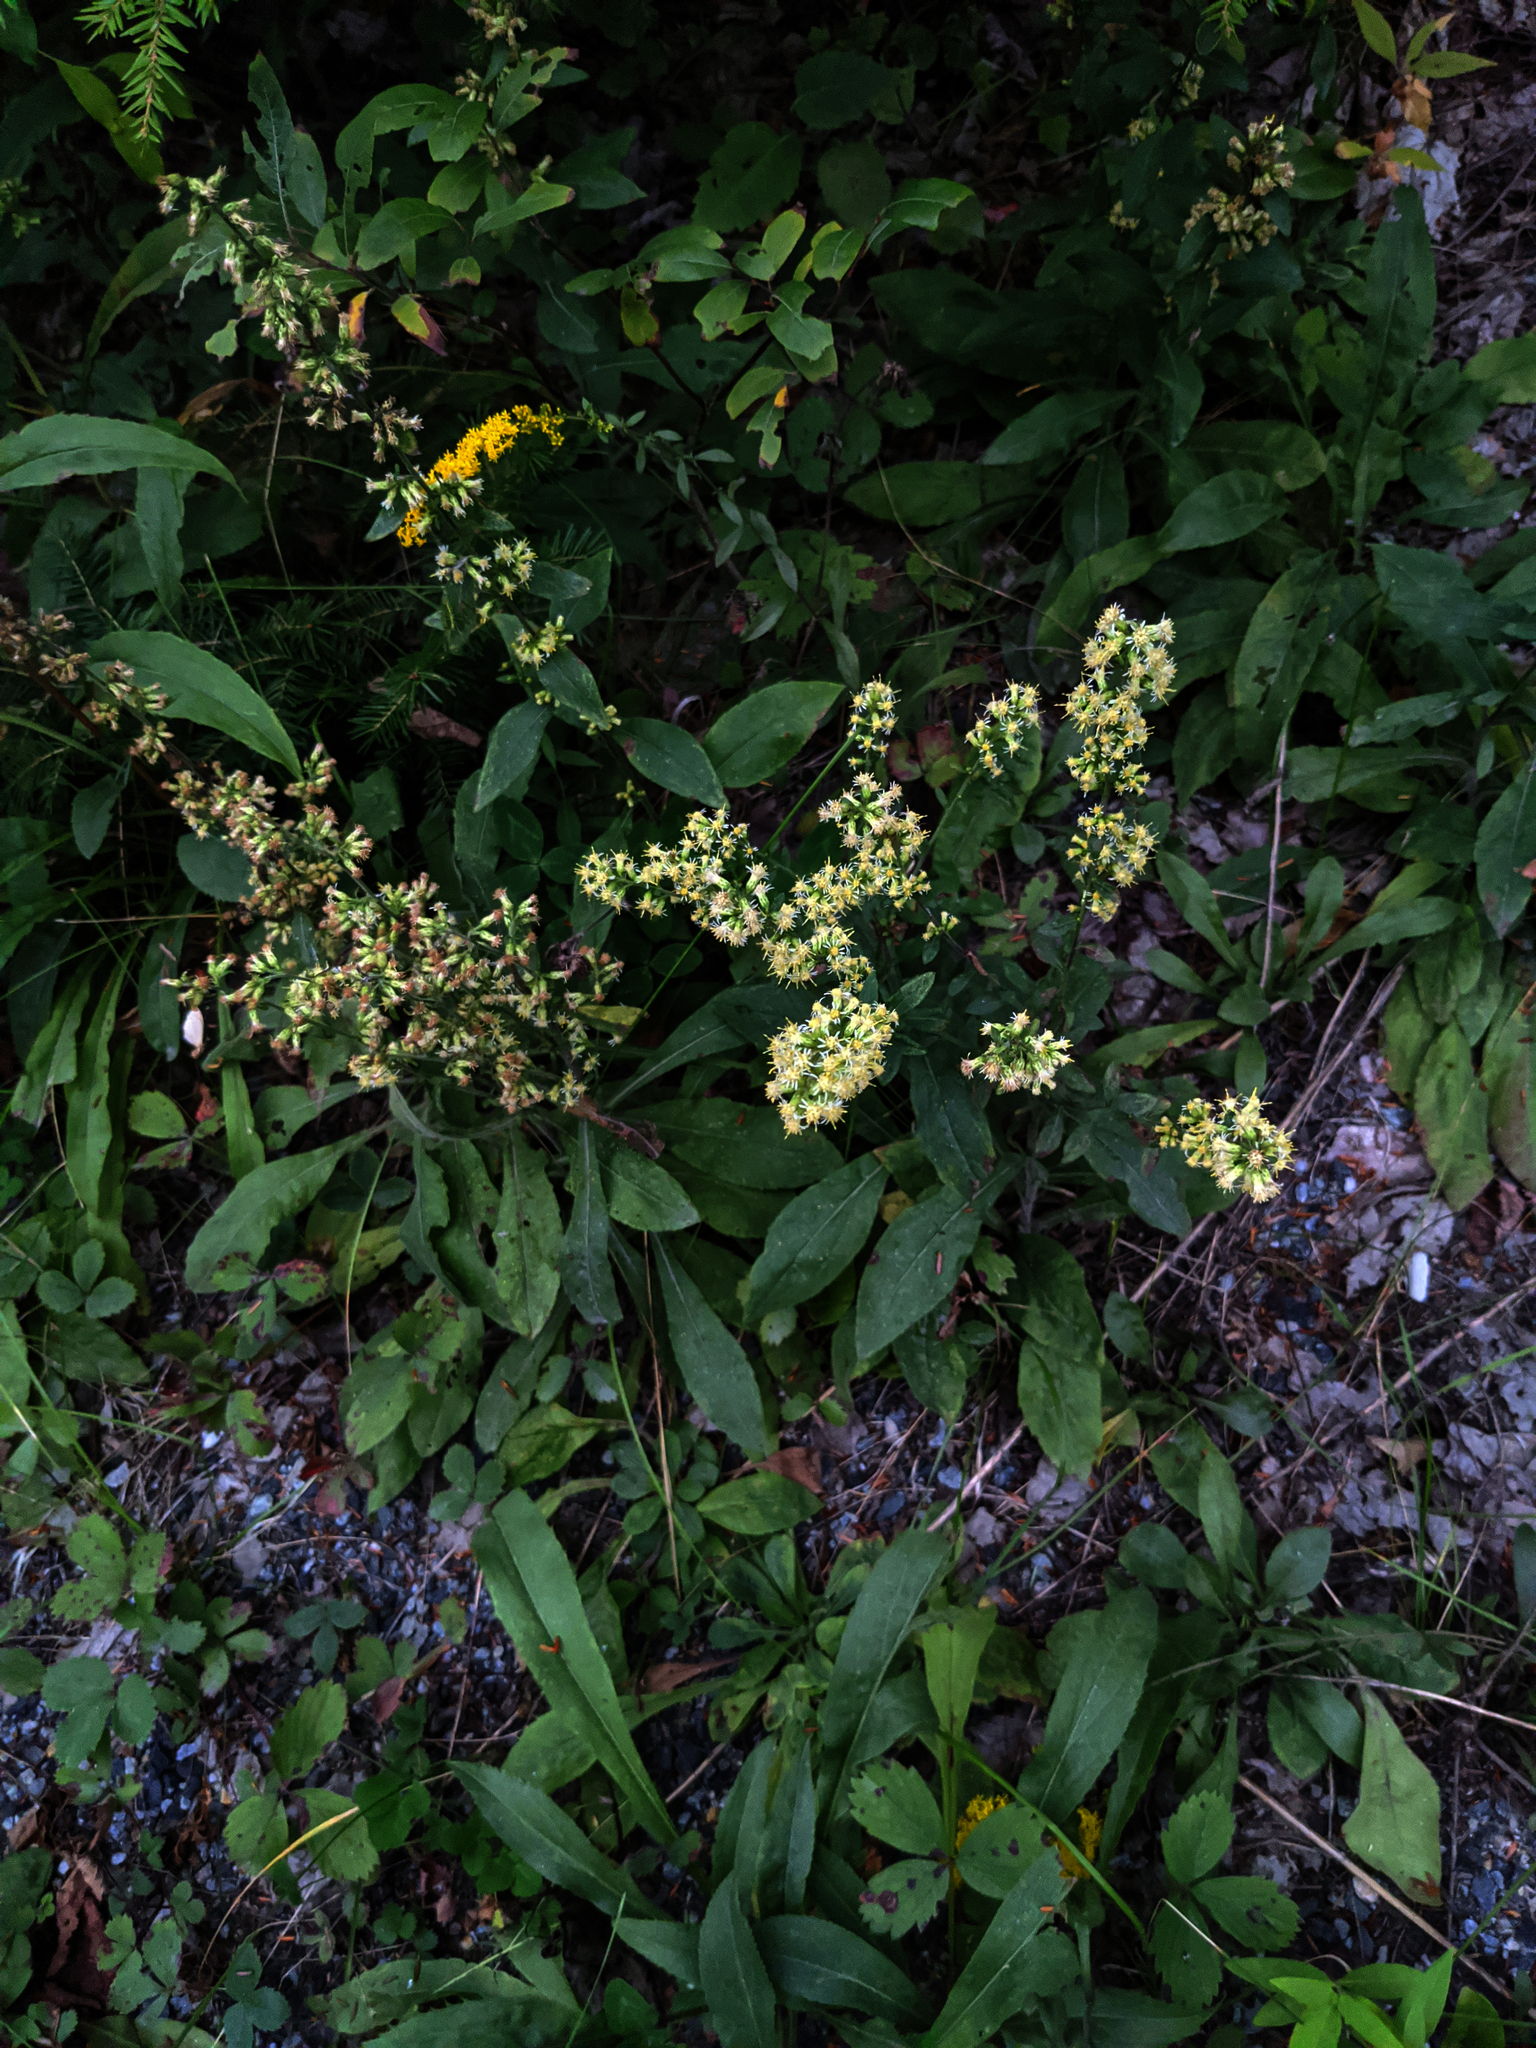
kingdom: Plantae
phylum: Tracheophyta
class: Magnoliopsida
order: Asterales
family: Asteraceae
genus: Solidago
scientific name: Solidago bicolor
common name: Silverrod
